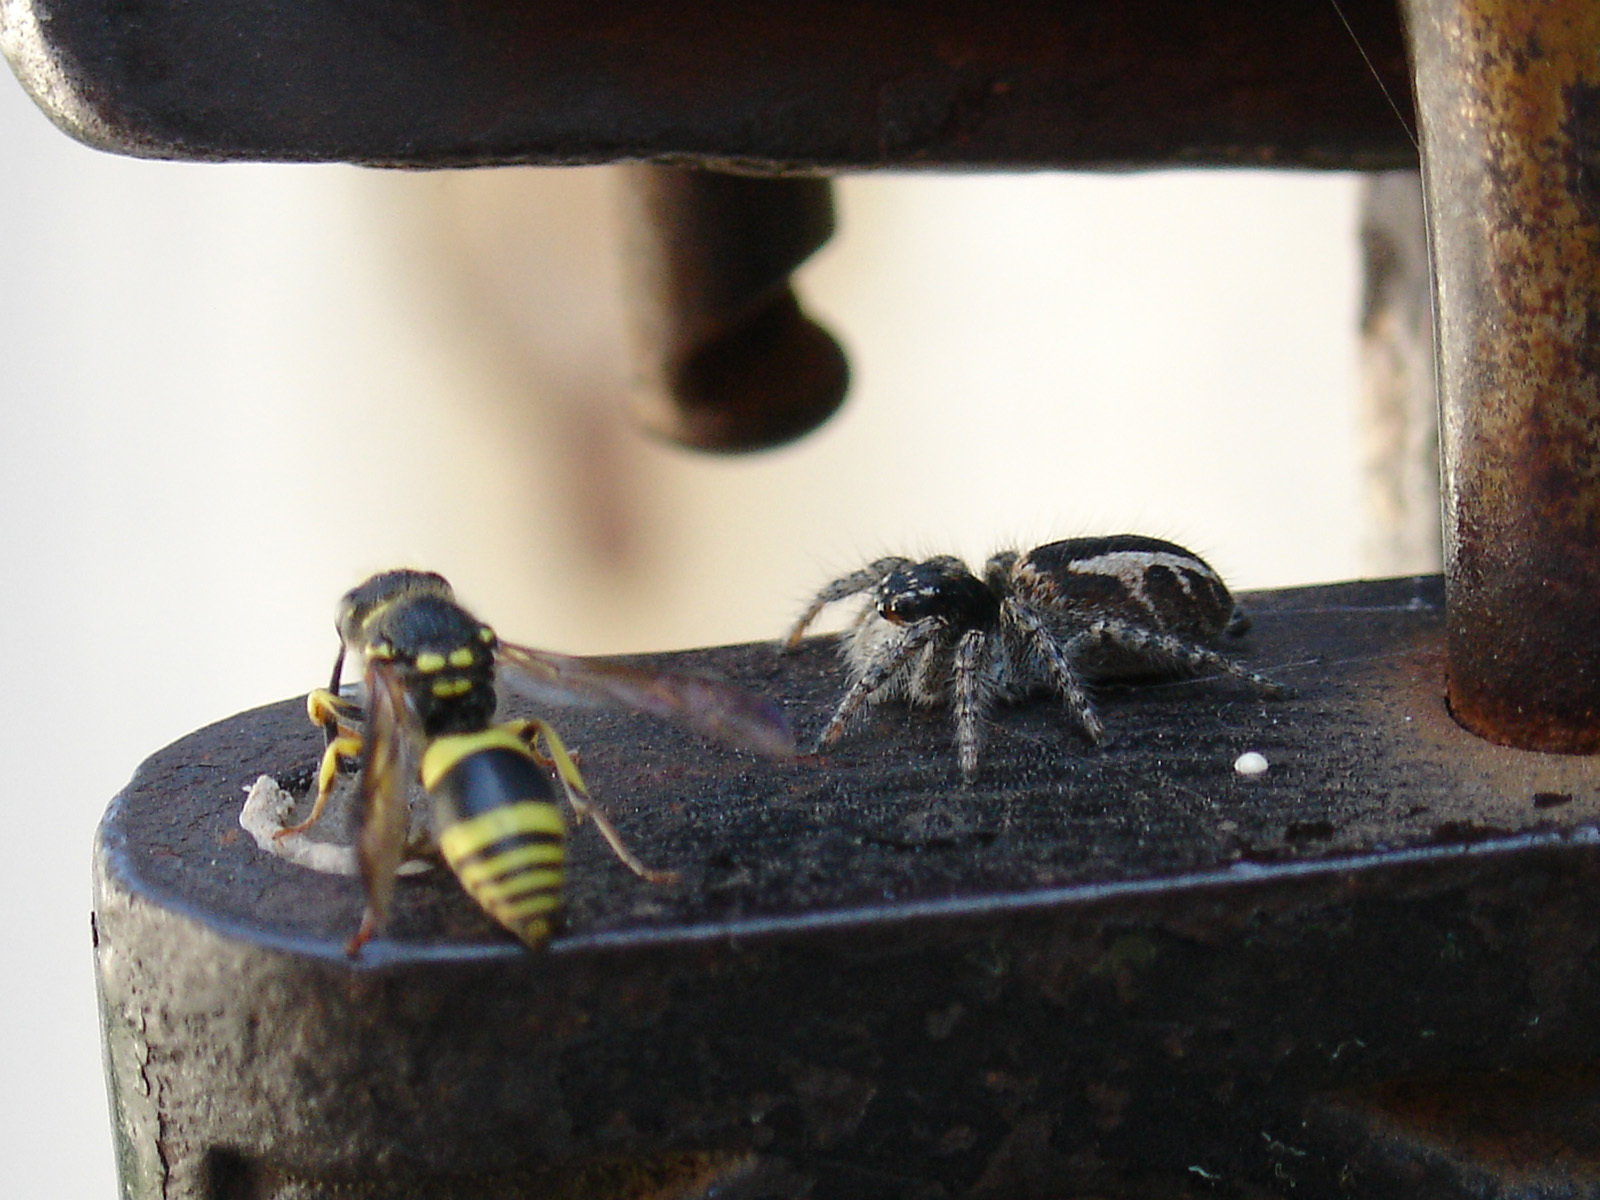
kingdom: Animalia
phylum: Arthropoda
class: Arachnida
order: Araneae
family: Salticidae
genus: Philaeus
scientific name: Philaeus chrysops
